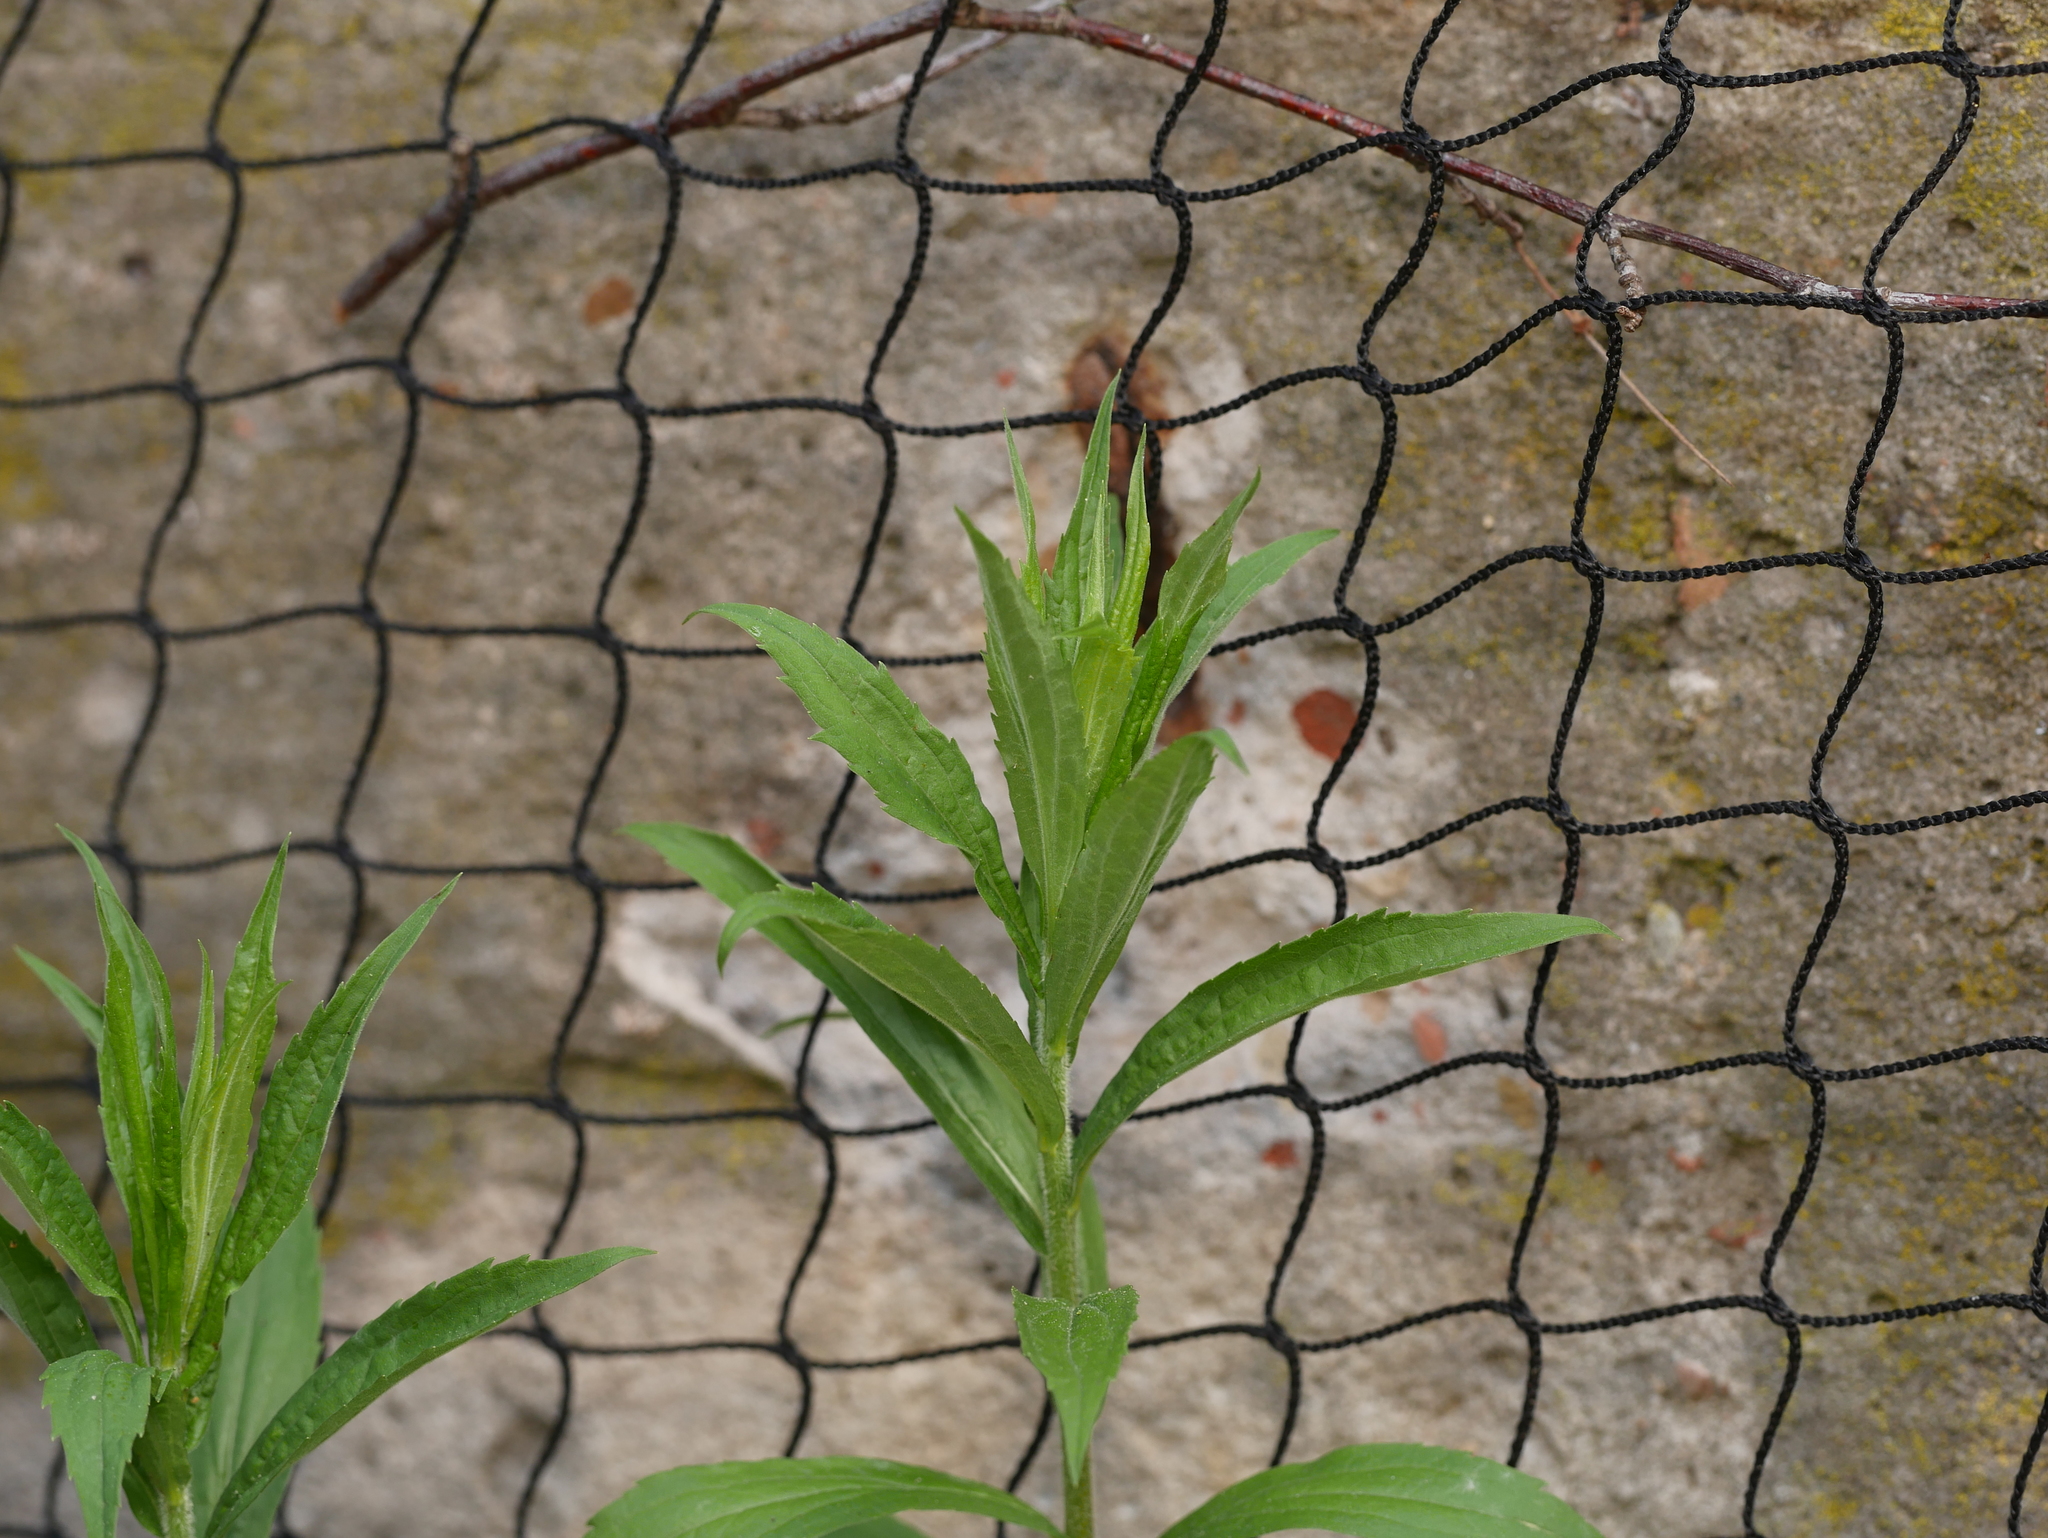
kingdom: Plantae
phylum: Tracheophyta
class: Magnoliopsida
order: Asterales
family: Asteraceae
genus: Solidago
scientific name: Solidago canadensis
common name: Canada goldenrod
